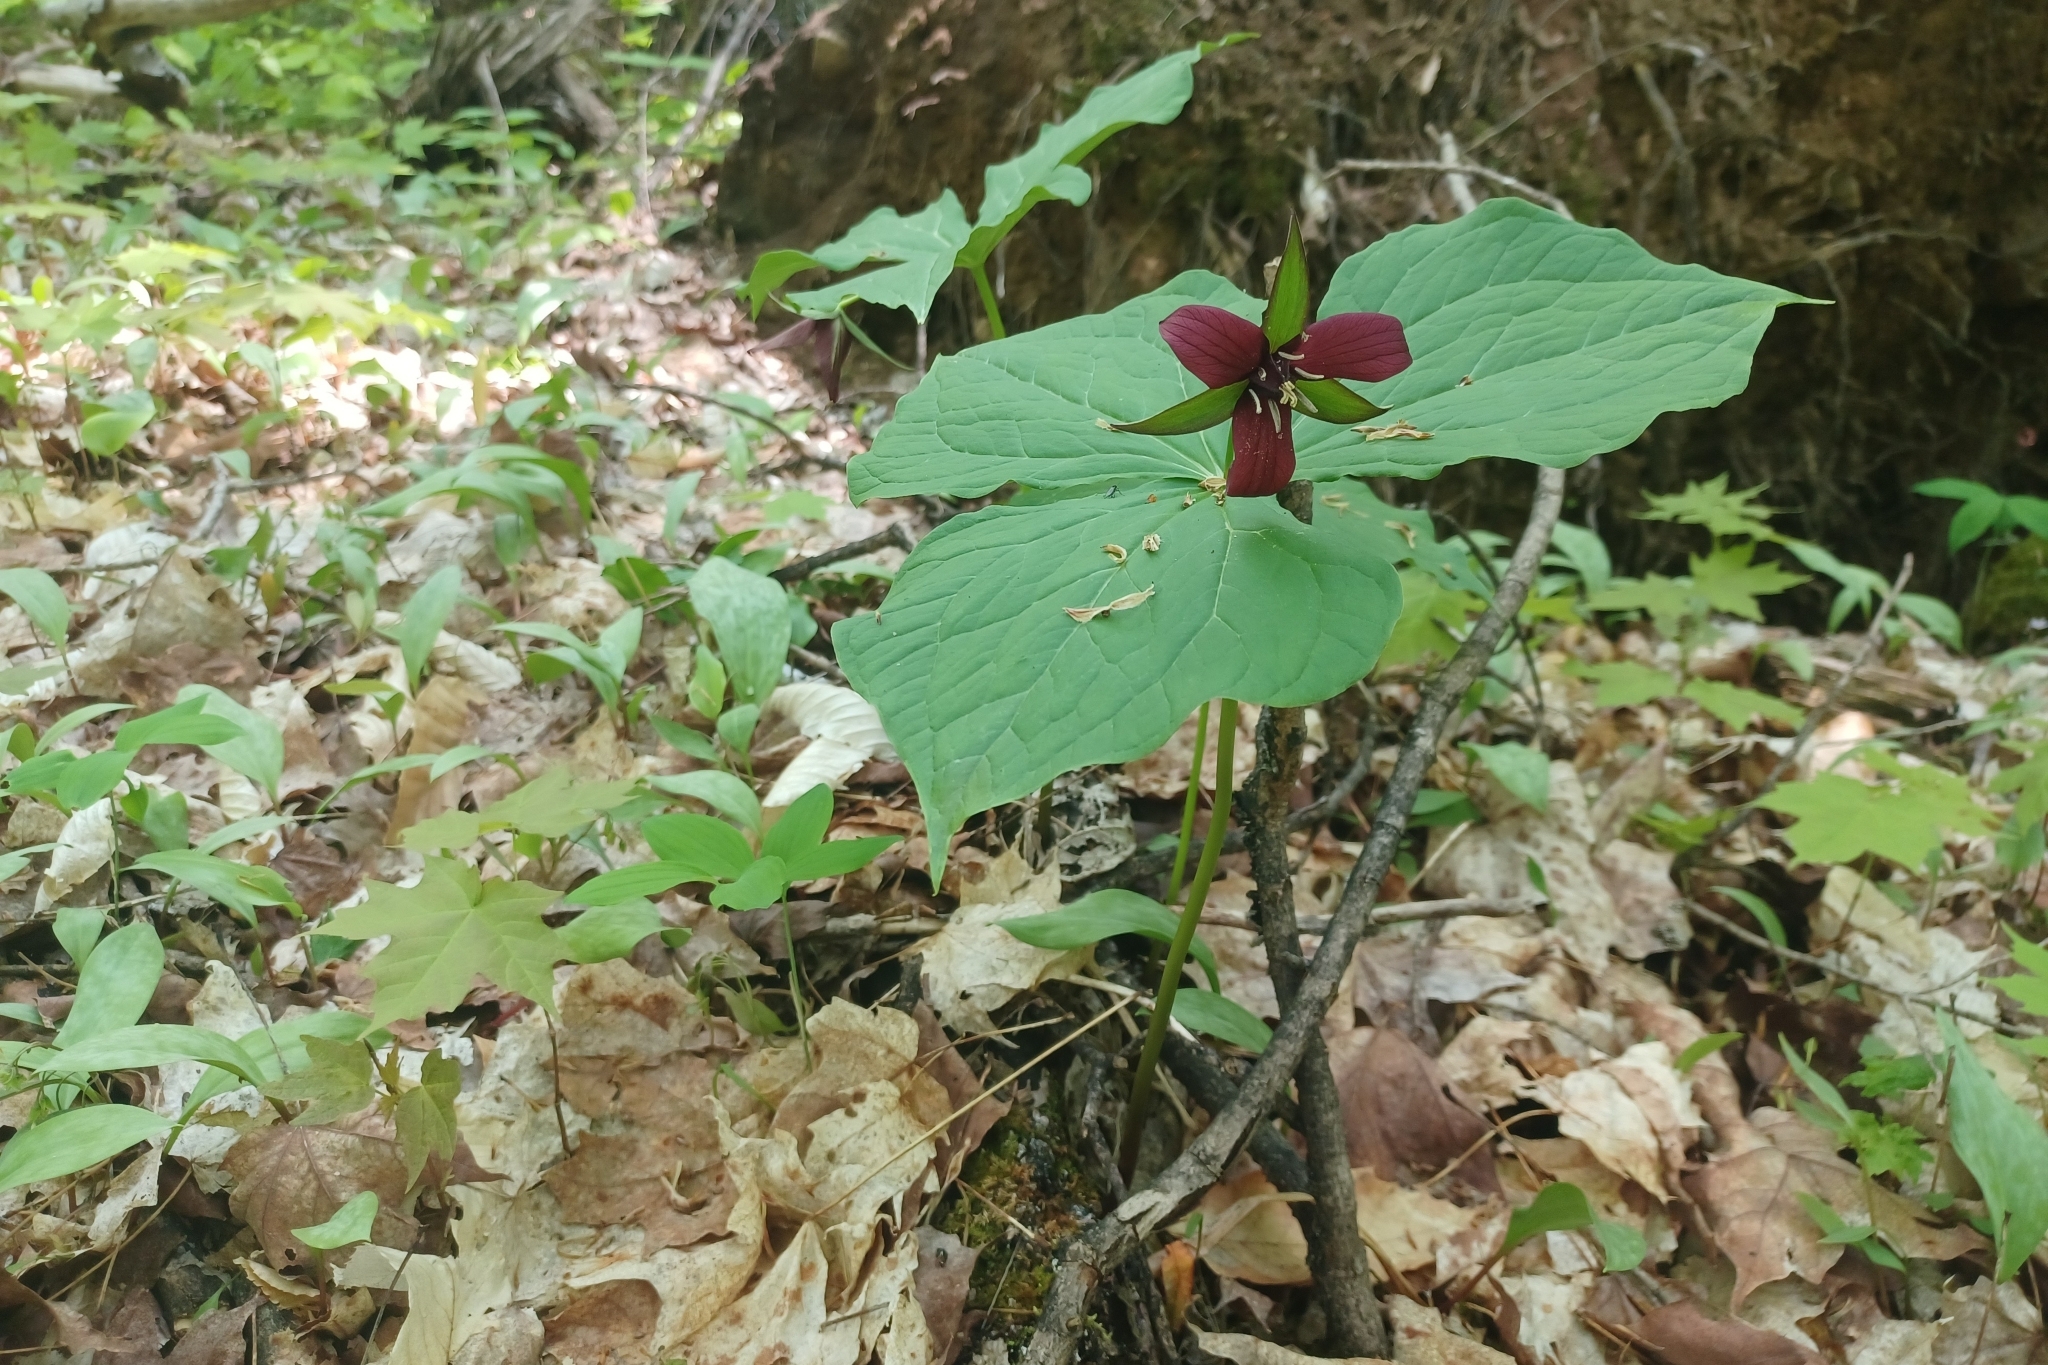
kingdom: Plantae
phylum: Tracheophyta
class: Liliopsida
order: Liliales
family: Melanthiaceae
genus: Trillium
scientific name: Trillium erectum
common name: Purple trillium
